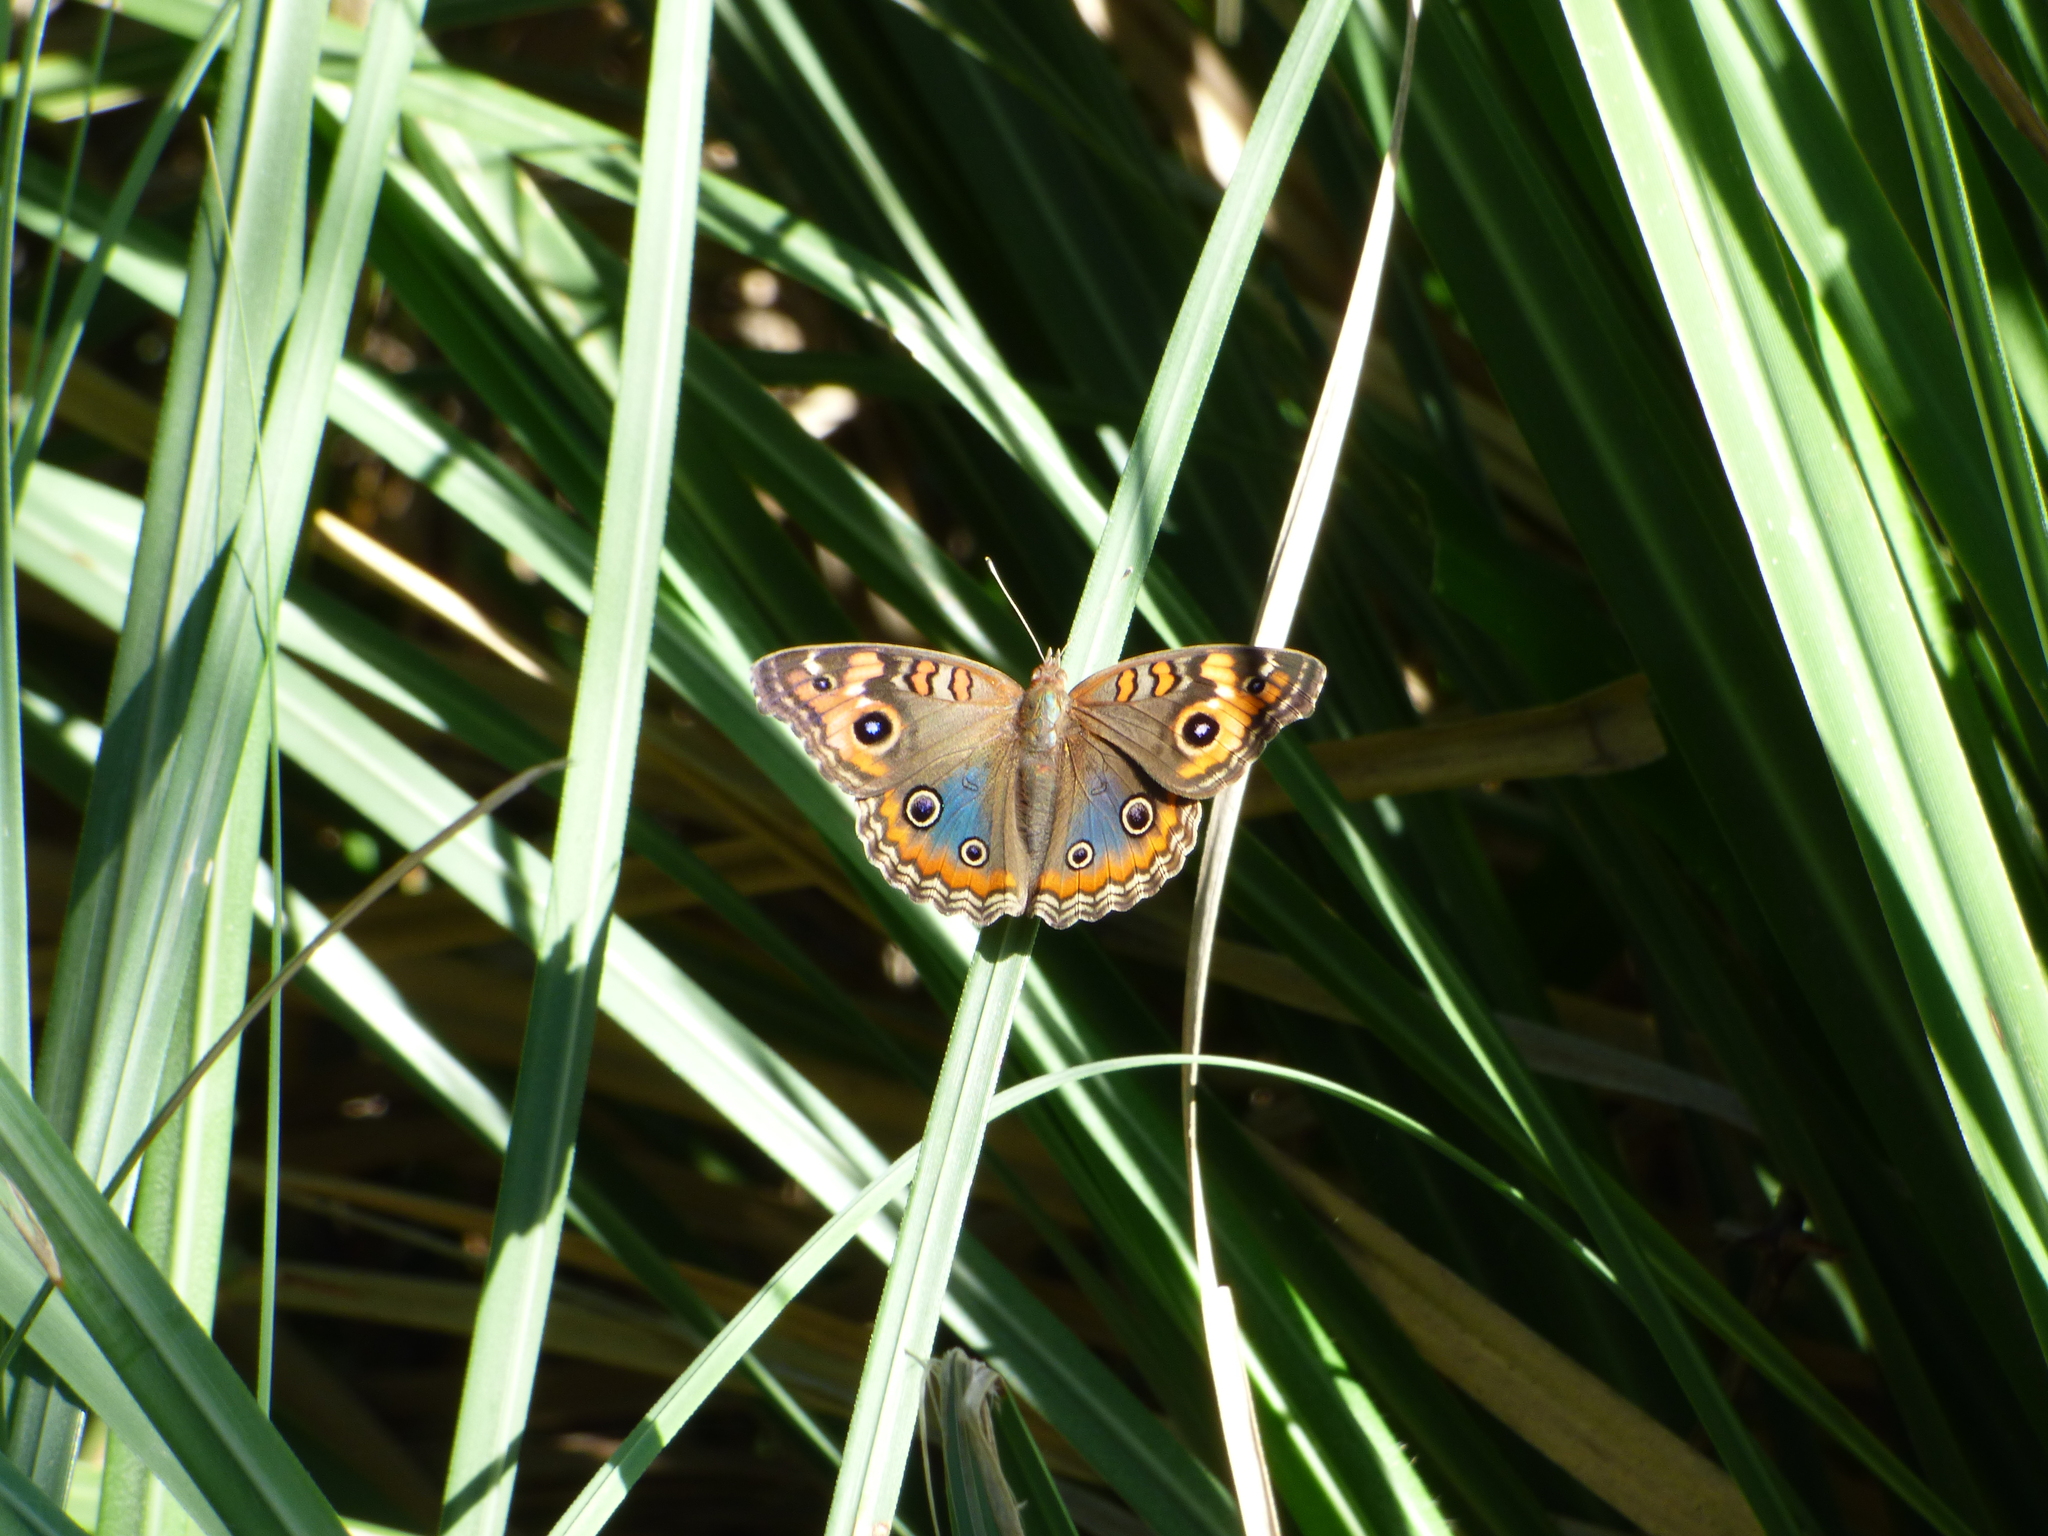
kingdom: Animalia
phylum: Arthropoda
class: Insecta
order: Lepidoptera
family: Nymphalidae
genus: Junonia
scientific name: Junonia lavinia
